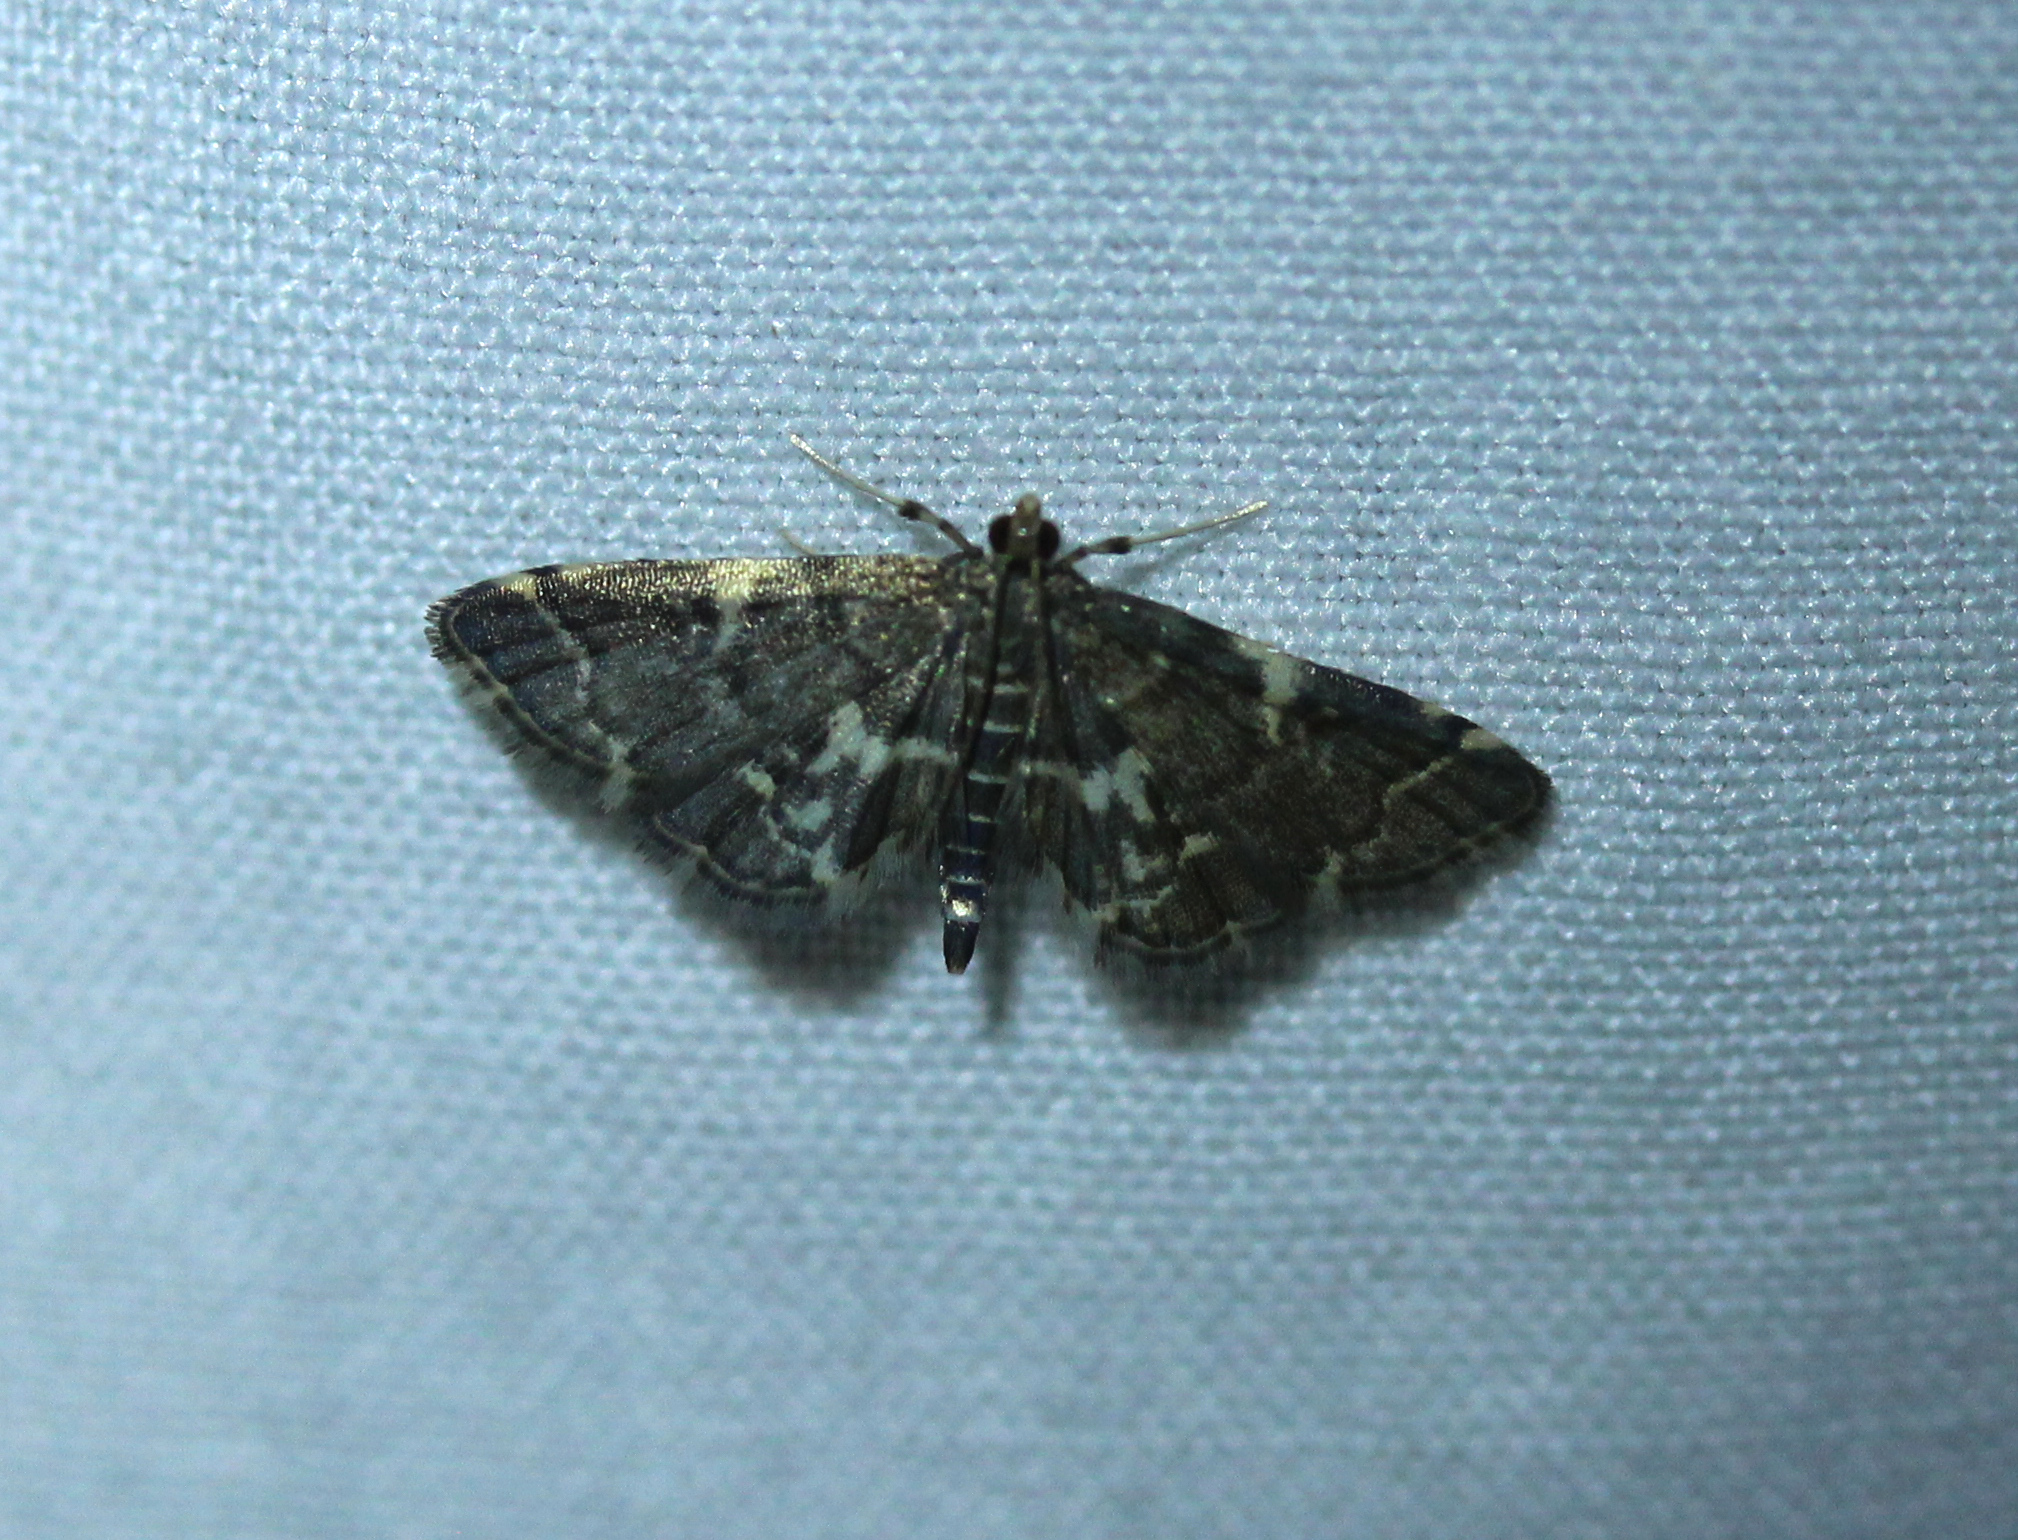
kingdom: Animalia
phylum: Arthropoda
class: Insecta
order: Lepidoptera
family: Crambidae
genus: Anageshna
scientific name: Anageshna primordialis
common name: Yellow-spotted webworm moth
